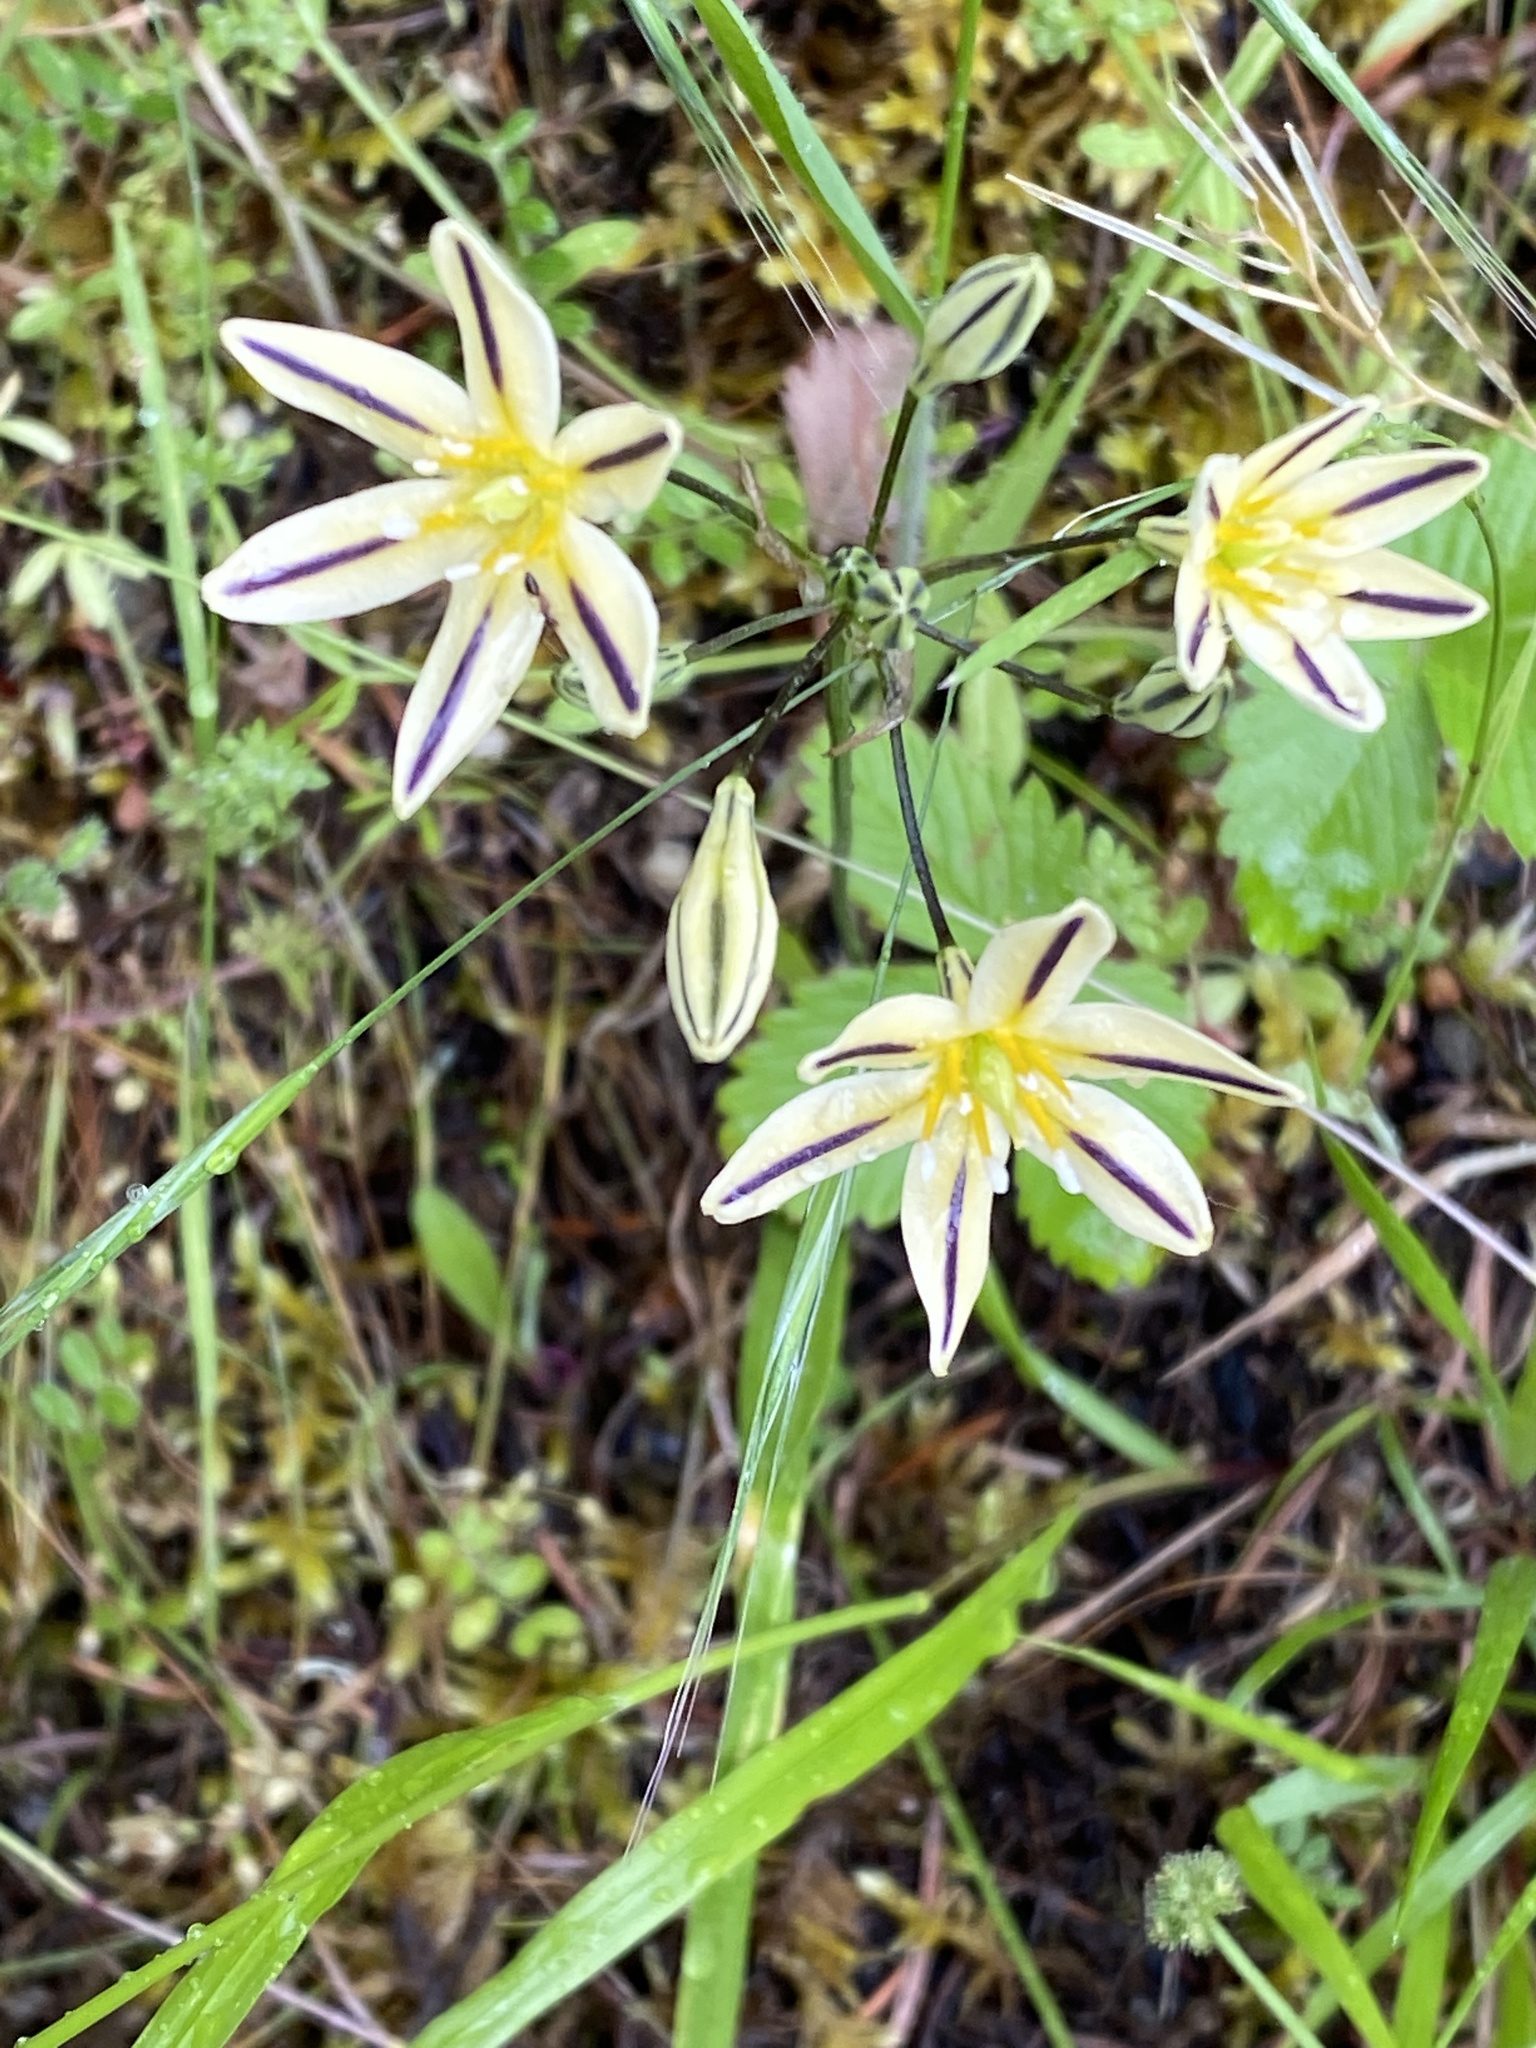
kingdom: Plantae
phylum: Tracheophyta
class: Liliopsida
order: Asparagales
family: Asparagaceae
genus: Triteleia
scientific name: Triteleia hendersonii
